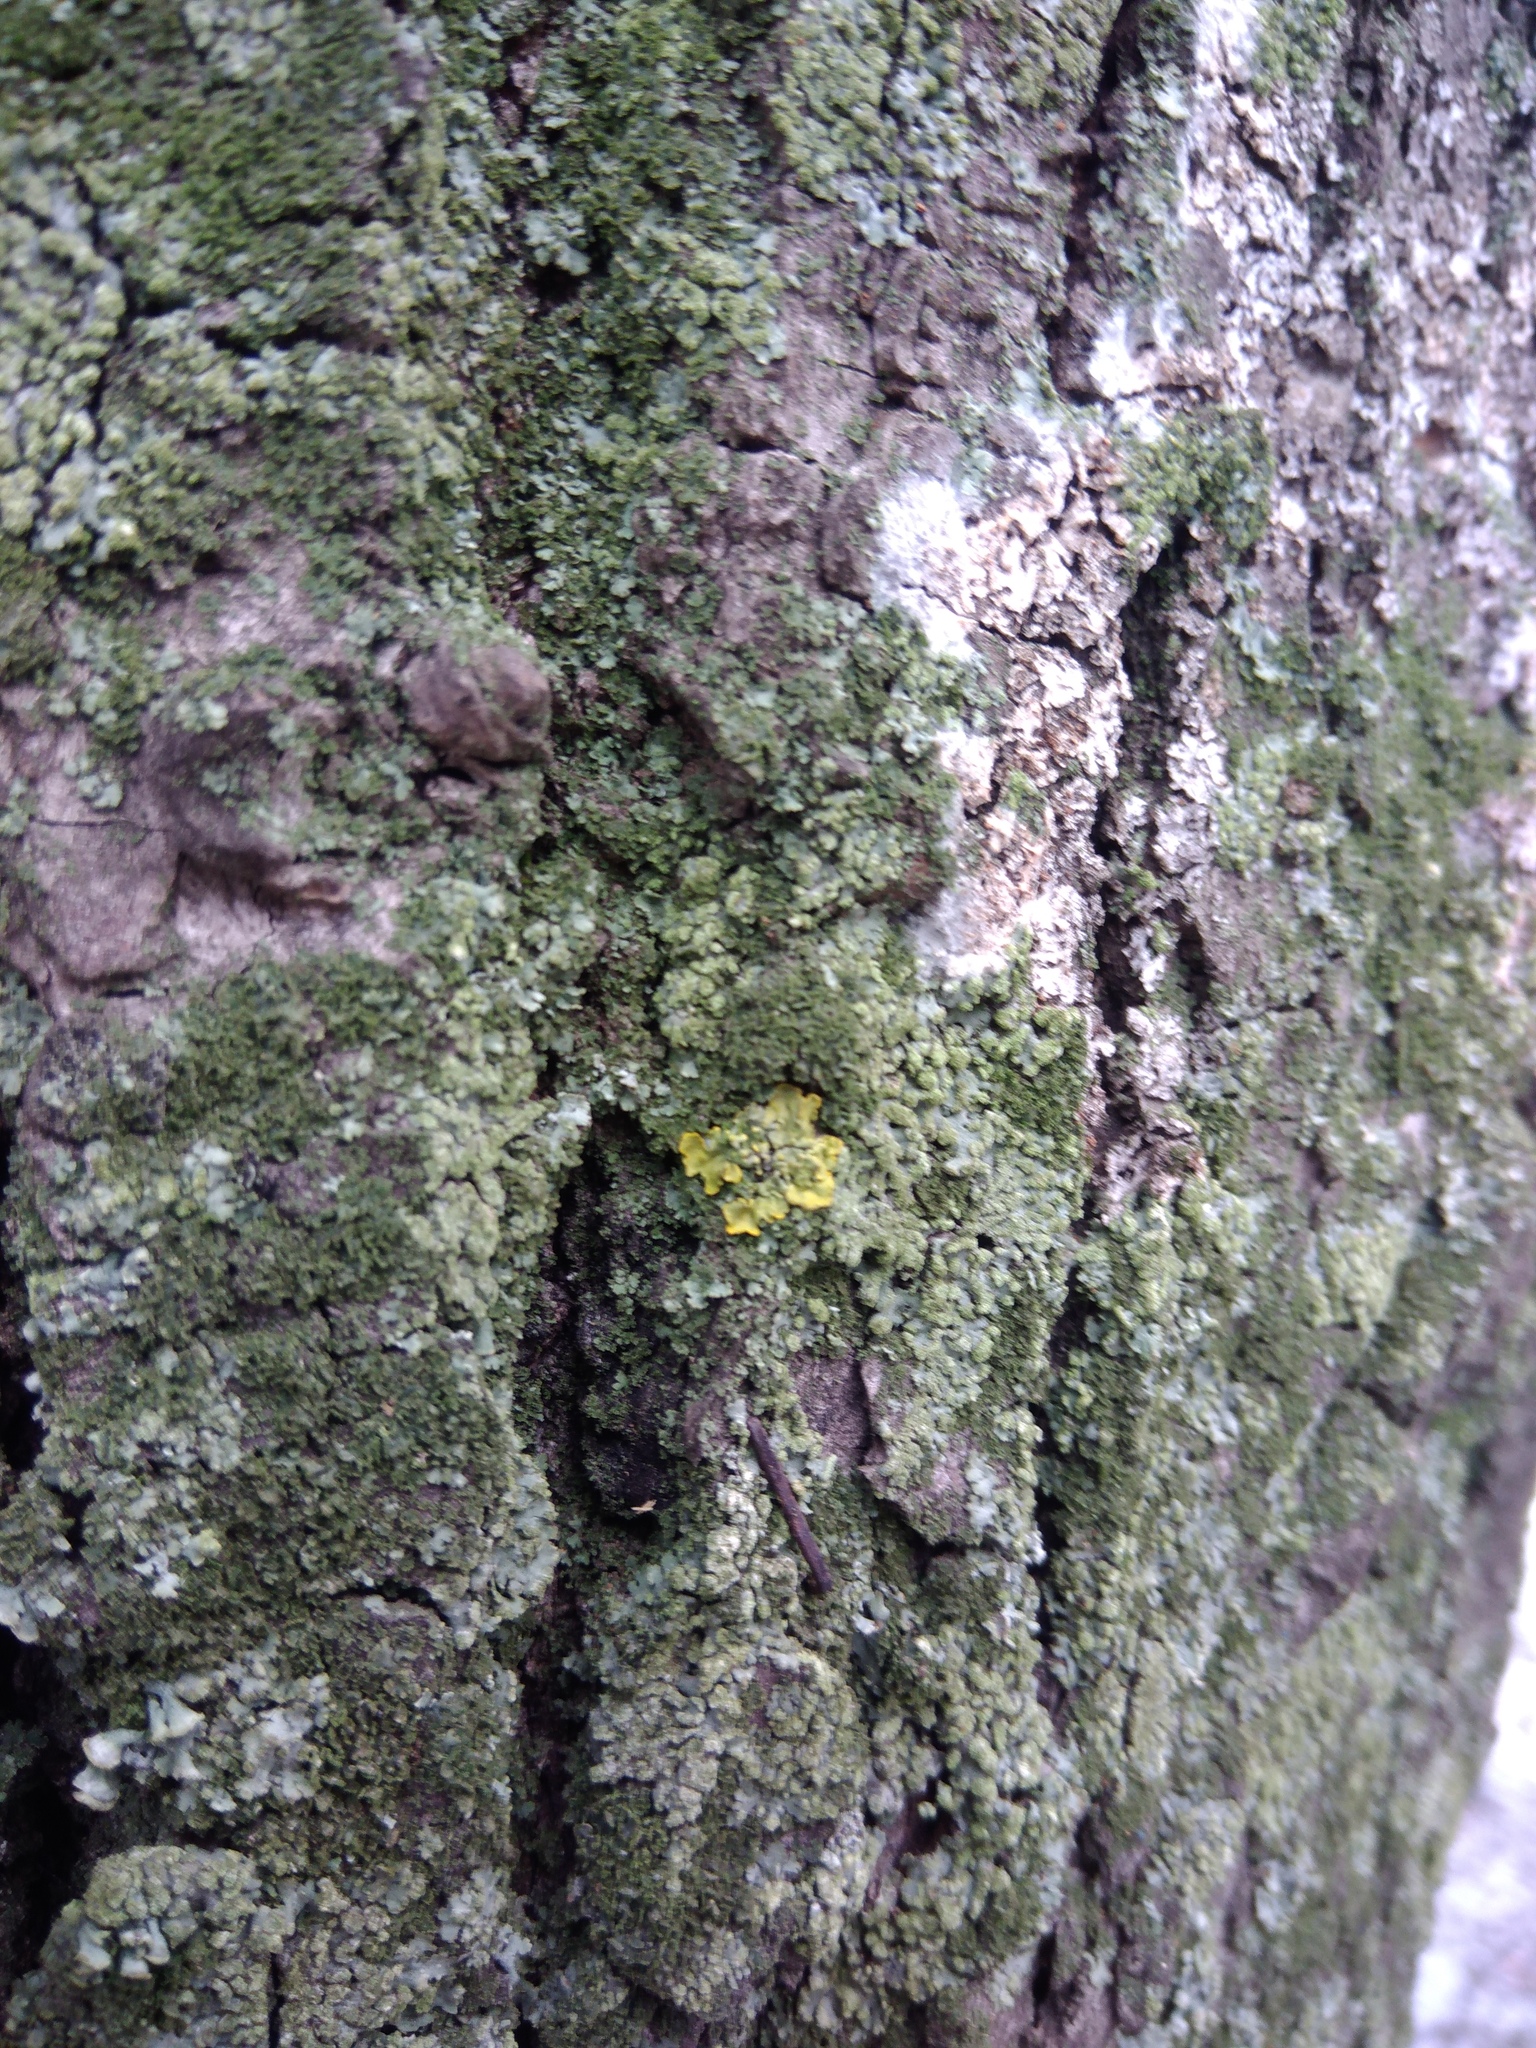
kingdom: Fungi
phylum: Ascomycota
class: Lecanoromycetes
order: Teloschistales
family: Teloschistaceae
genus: Xanthoria
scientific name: Xanthoria parietina
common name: Common orange lichen
